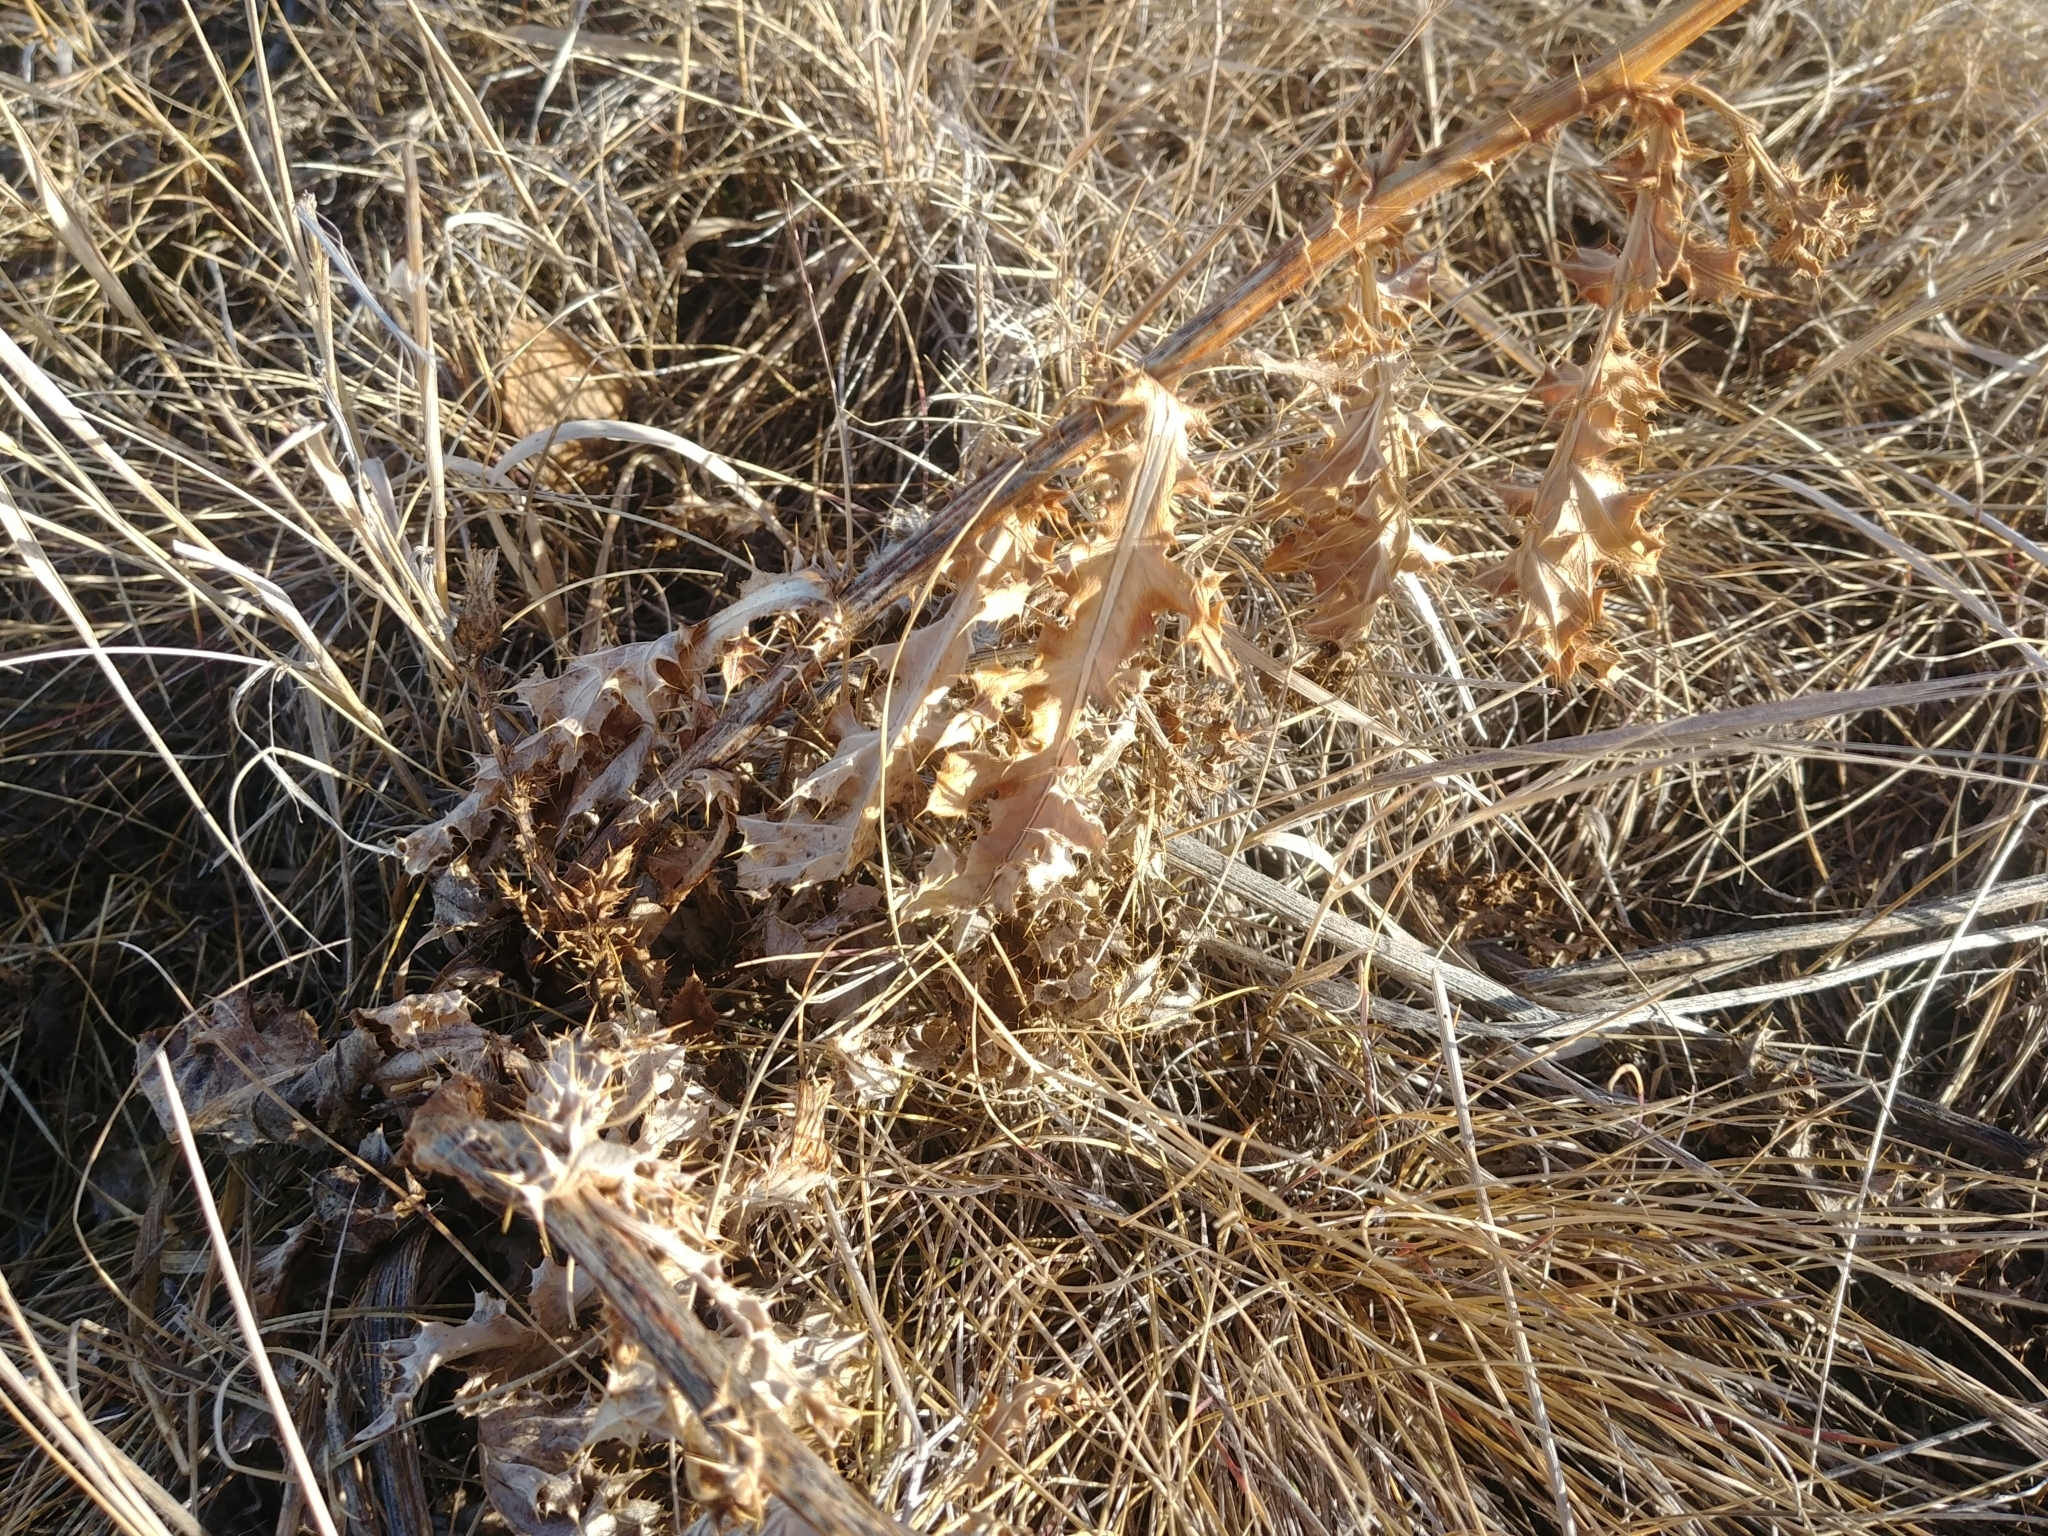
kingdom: Plantae
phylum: Tracheophyta
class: Magnoliopsida
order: Asterales
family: Asteraceae
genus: Cirsium
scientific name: Cirsium arvense
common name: Creeping thistle
